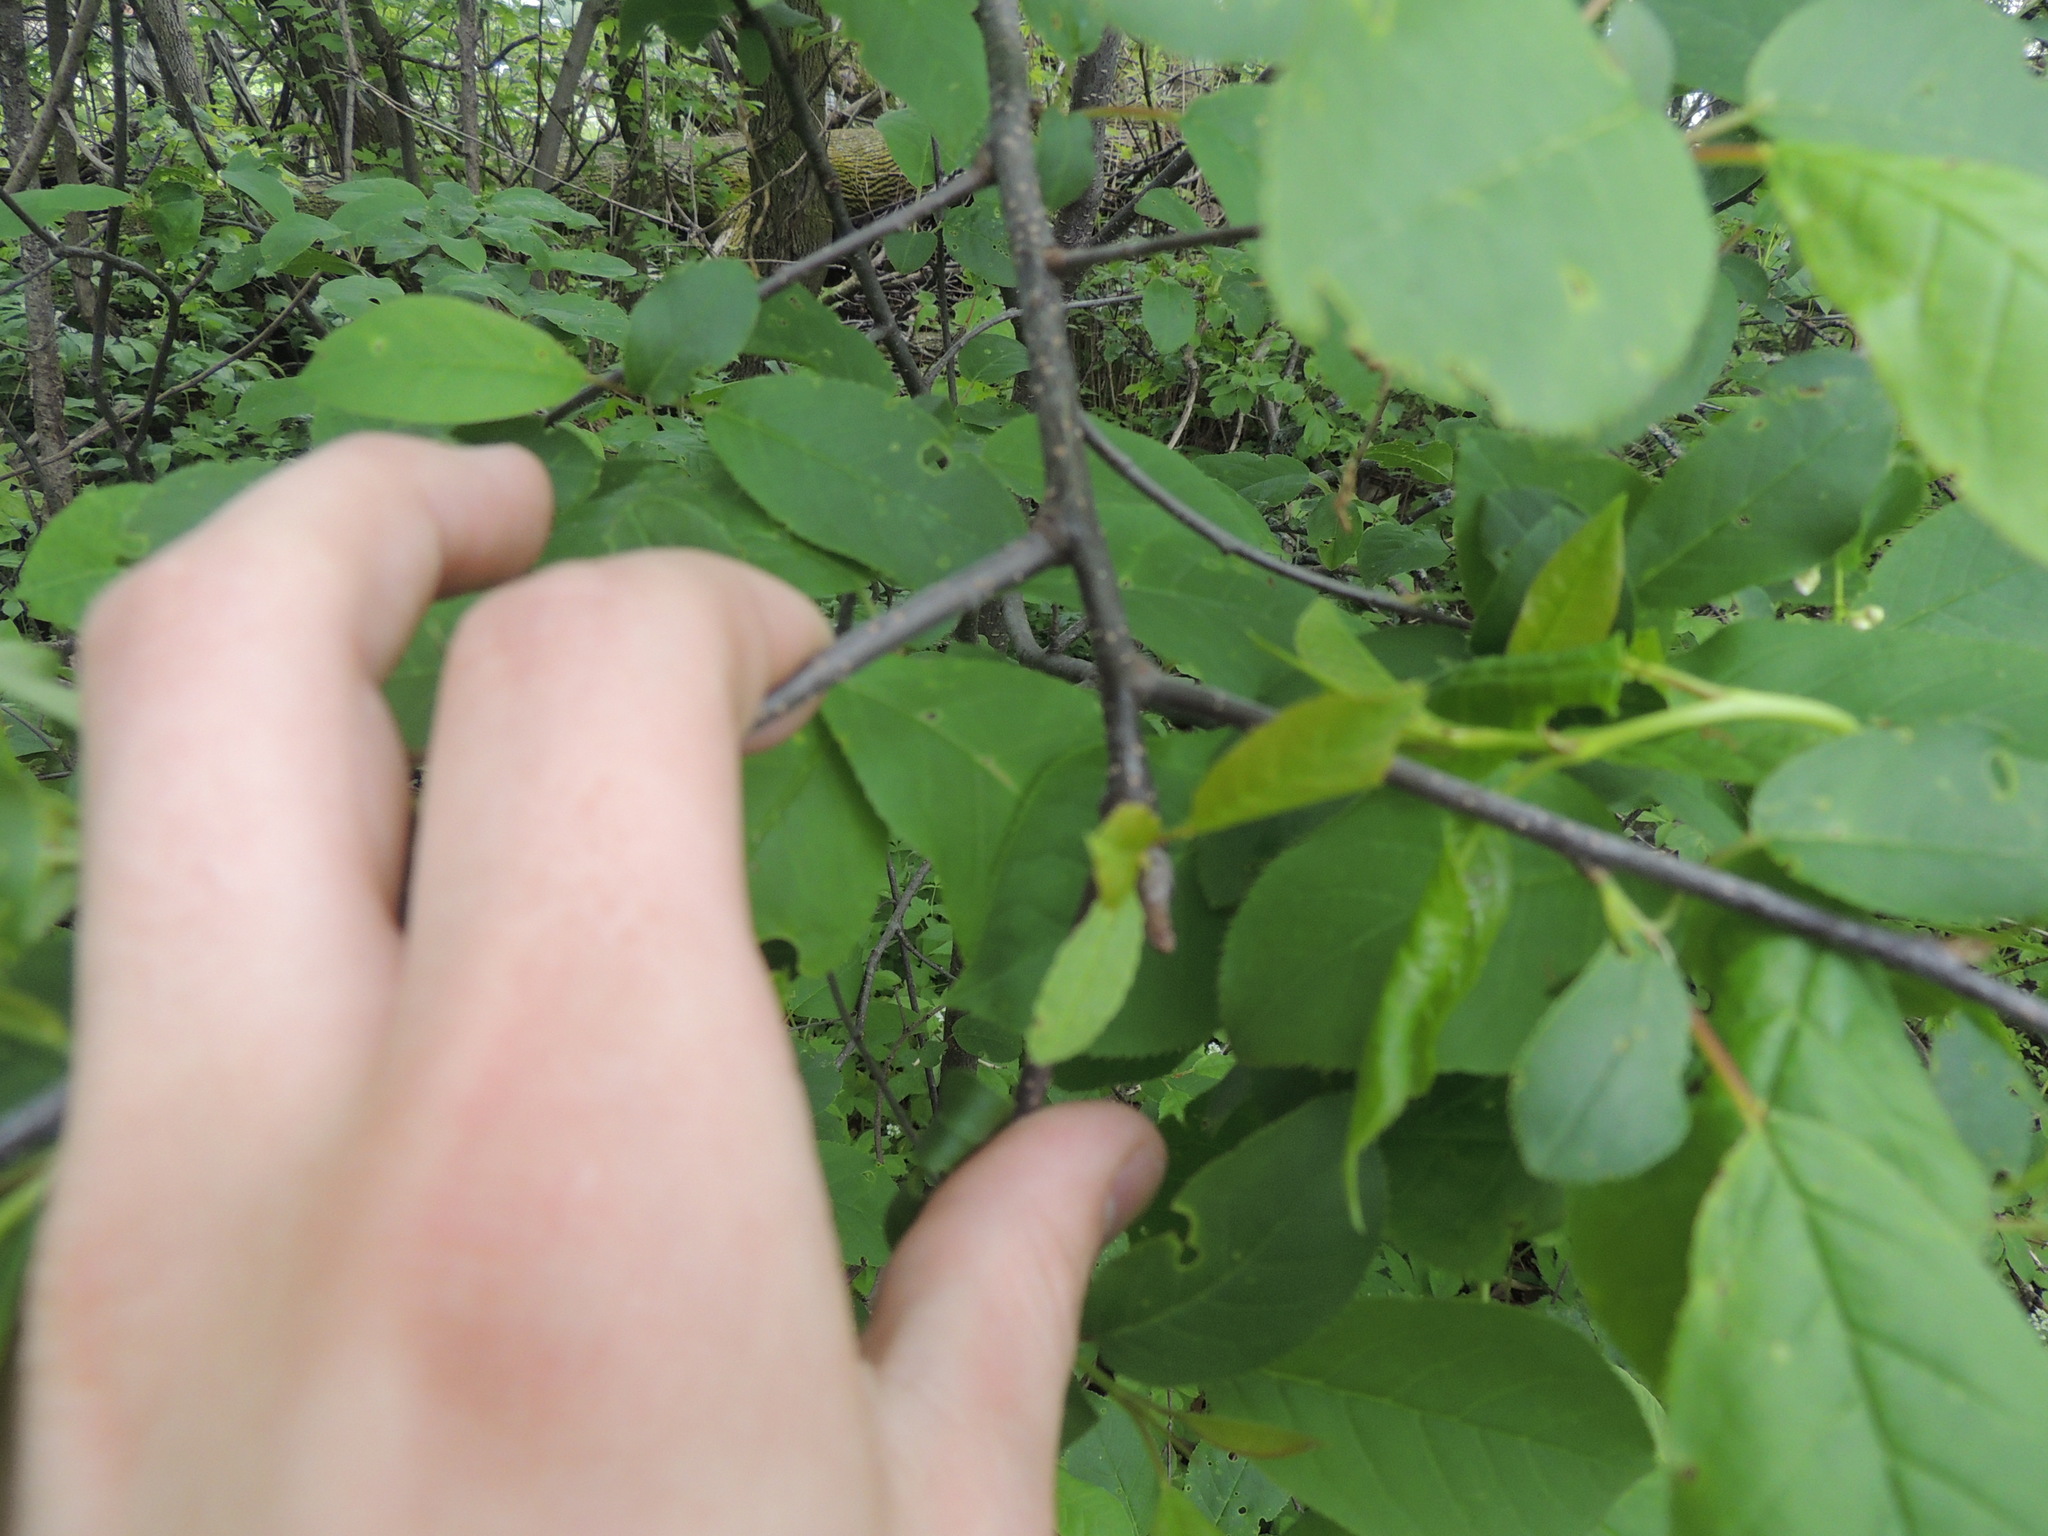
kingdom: Plantae
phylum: Tracheophyta
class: Magnoliopsida
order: Rosales
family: Rosaceae
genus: Prunus
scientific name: Prunus virginiana
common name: Chokecherry
